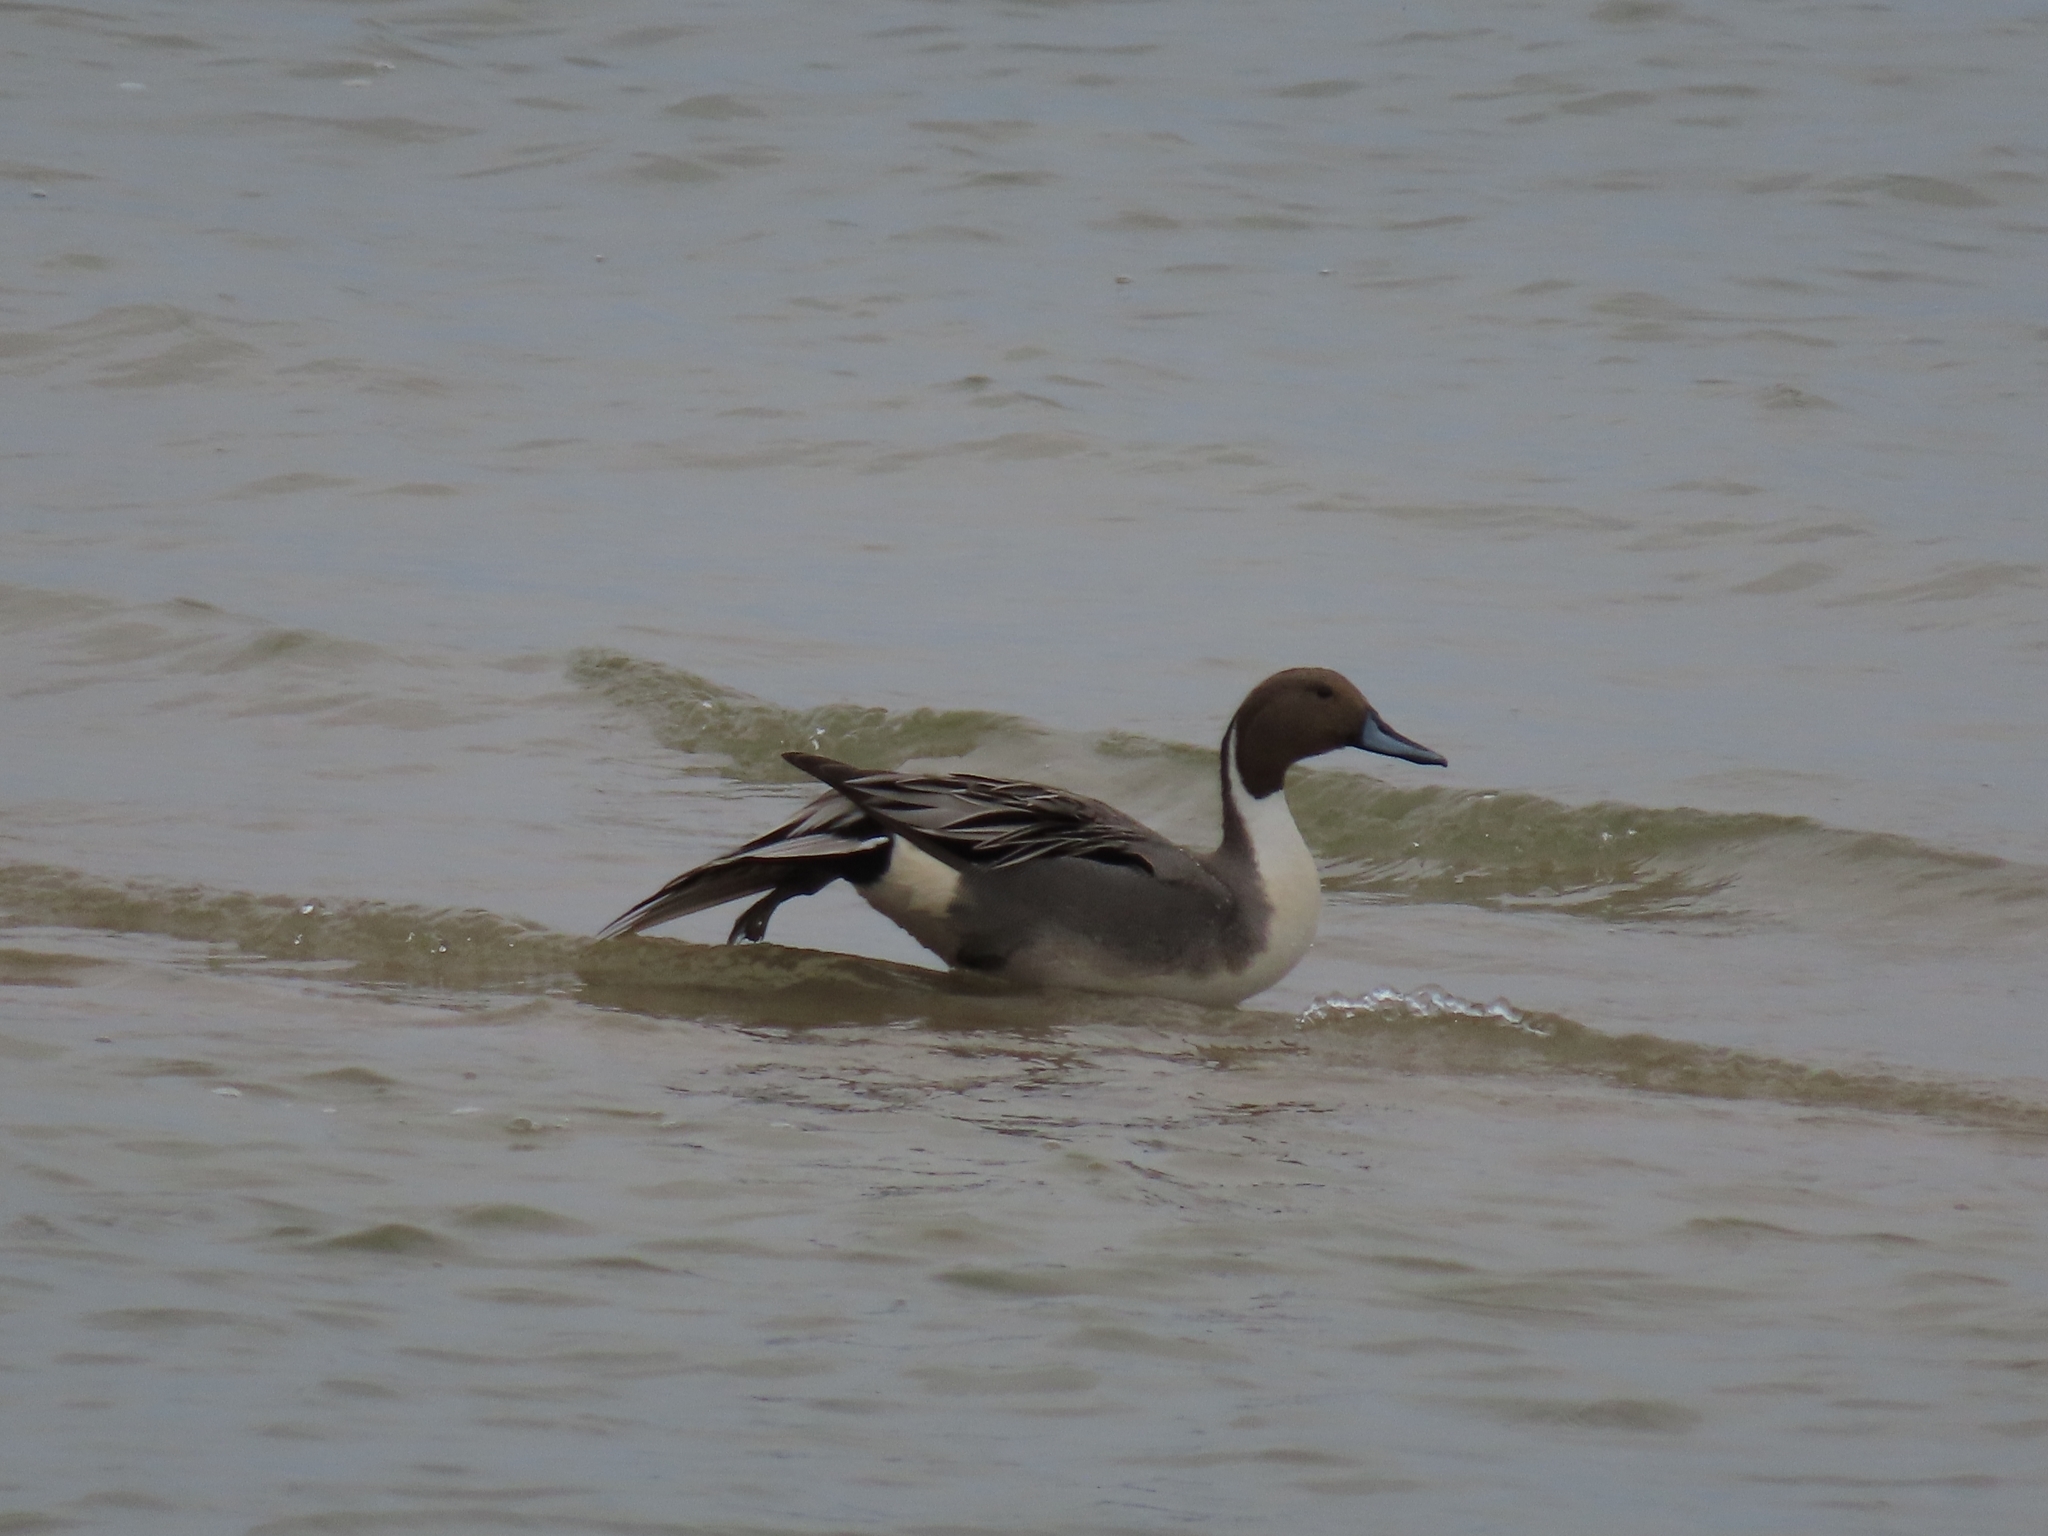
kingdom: Animalia
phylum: Chordata
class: Aves
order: Anseriformes
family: Anatidae
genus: Anas
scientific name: Anas acuta
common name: Northern pintail
